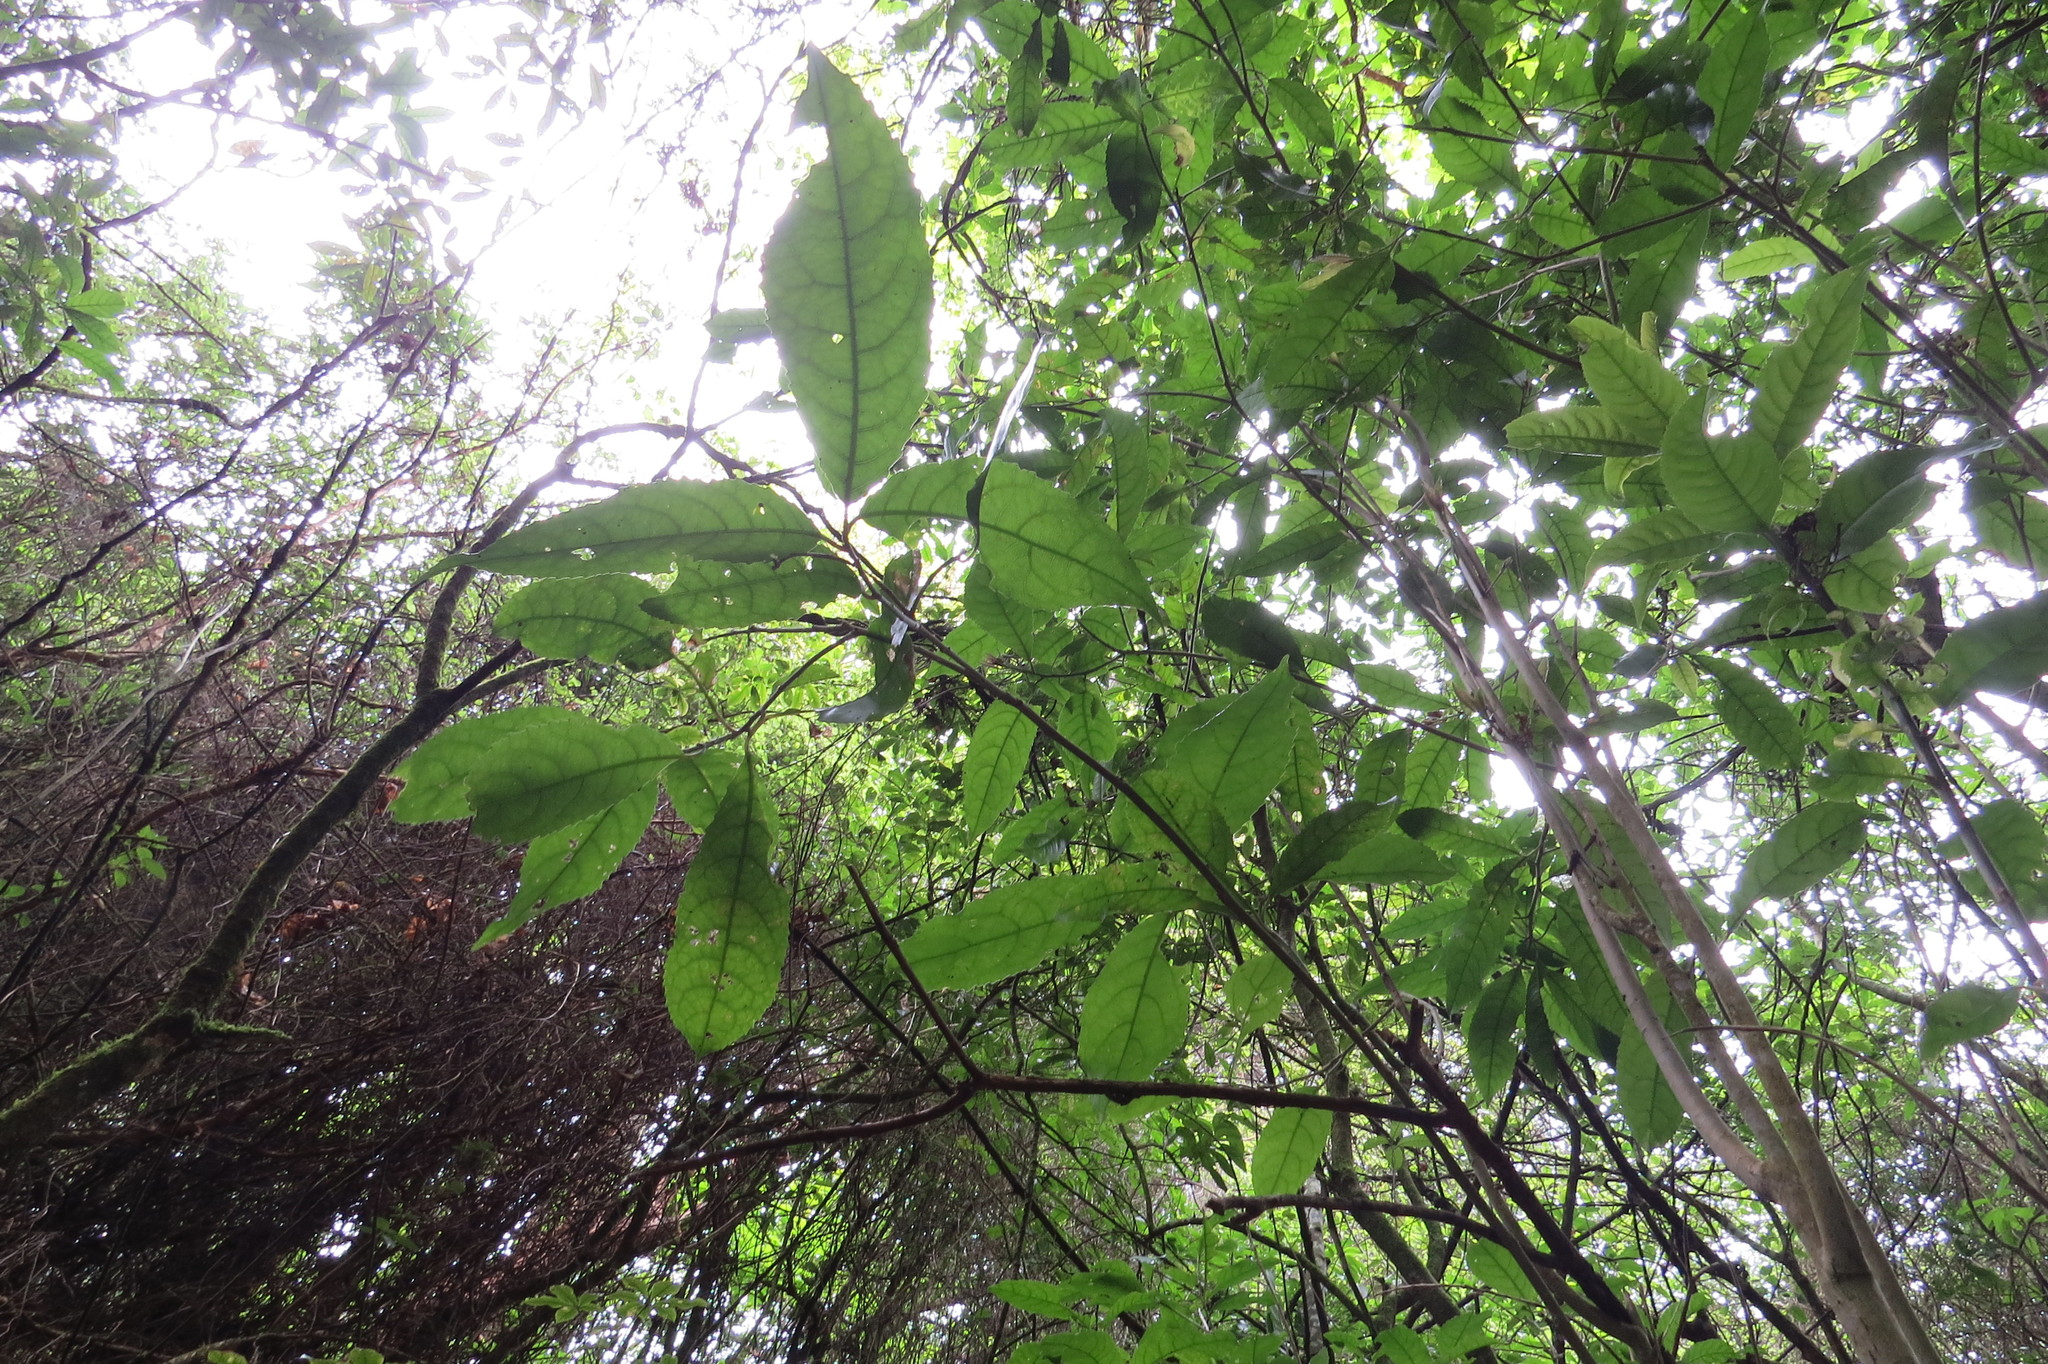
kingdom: Plantae
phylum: Tracheophyta
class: Magnoliopsida
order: Malpighiales
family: Violaceae
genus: Melicytus
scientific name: Melicytus ramiflorus
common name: Mahoe
